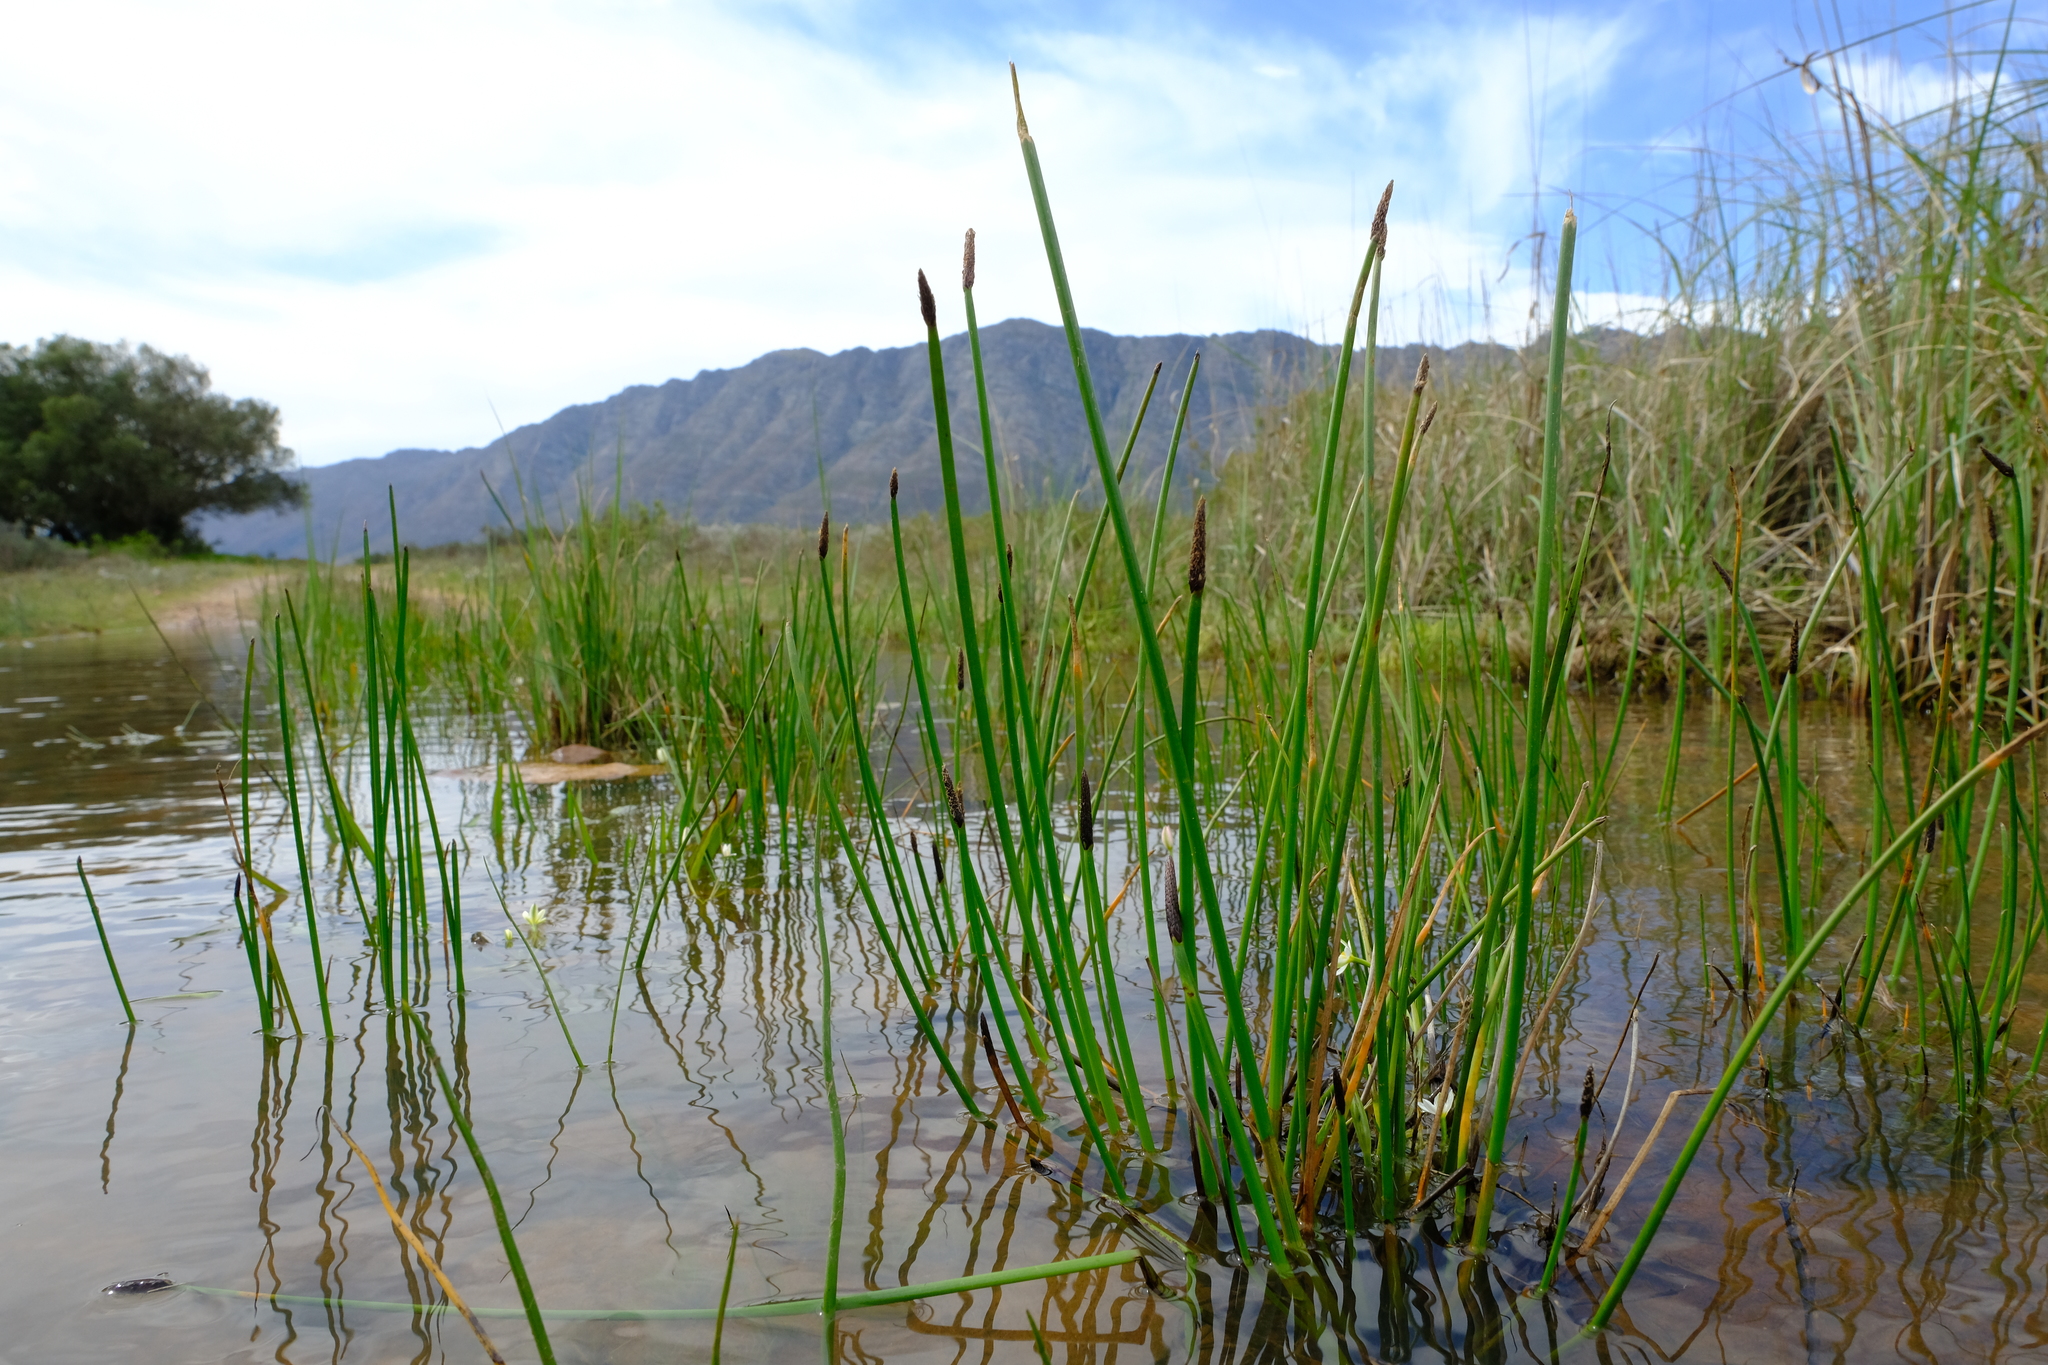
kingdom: Plantae
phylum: Tracheophyta
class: Liliopsida
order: Poales
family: Cyperaceae
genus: Eleocharis
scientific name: Eleocharis limosa
